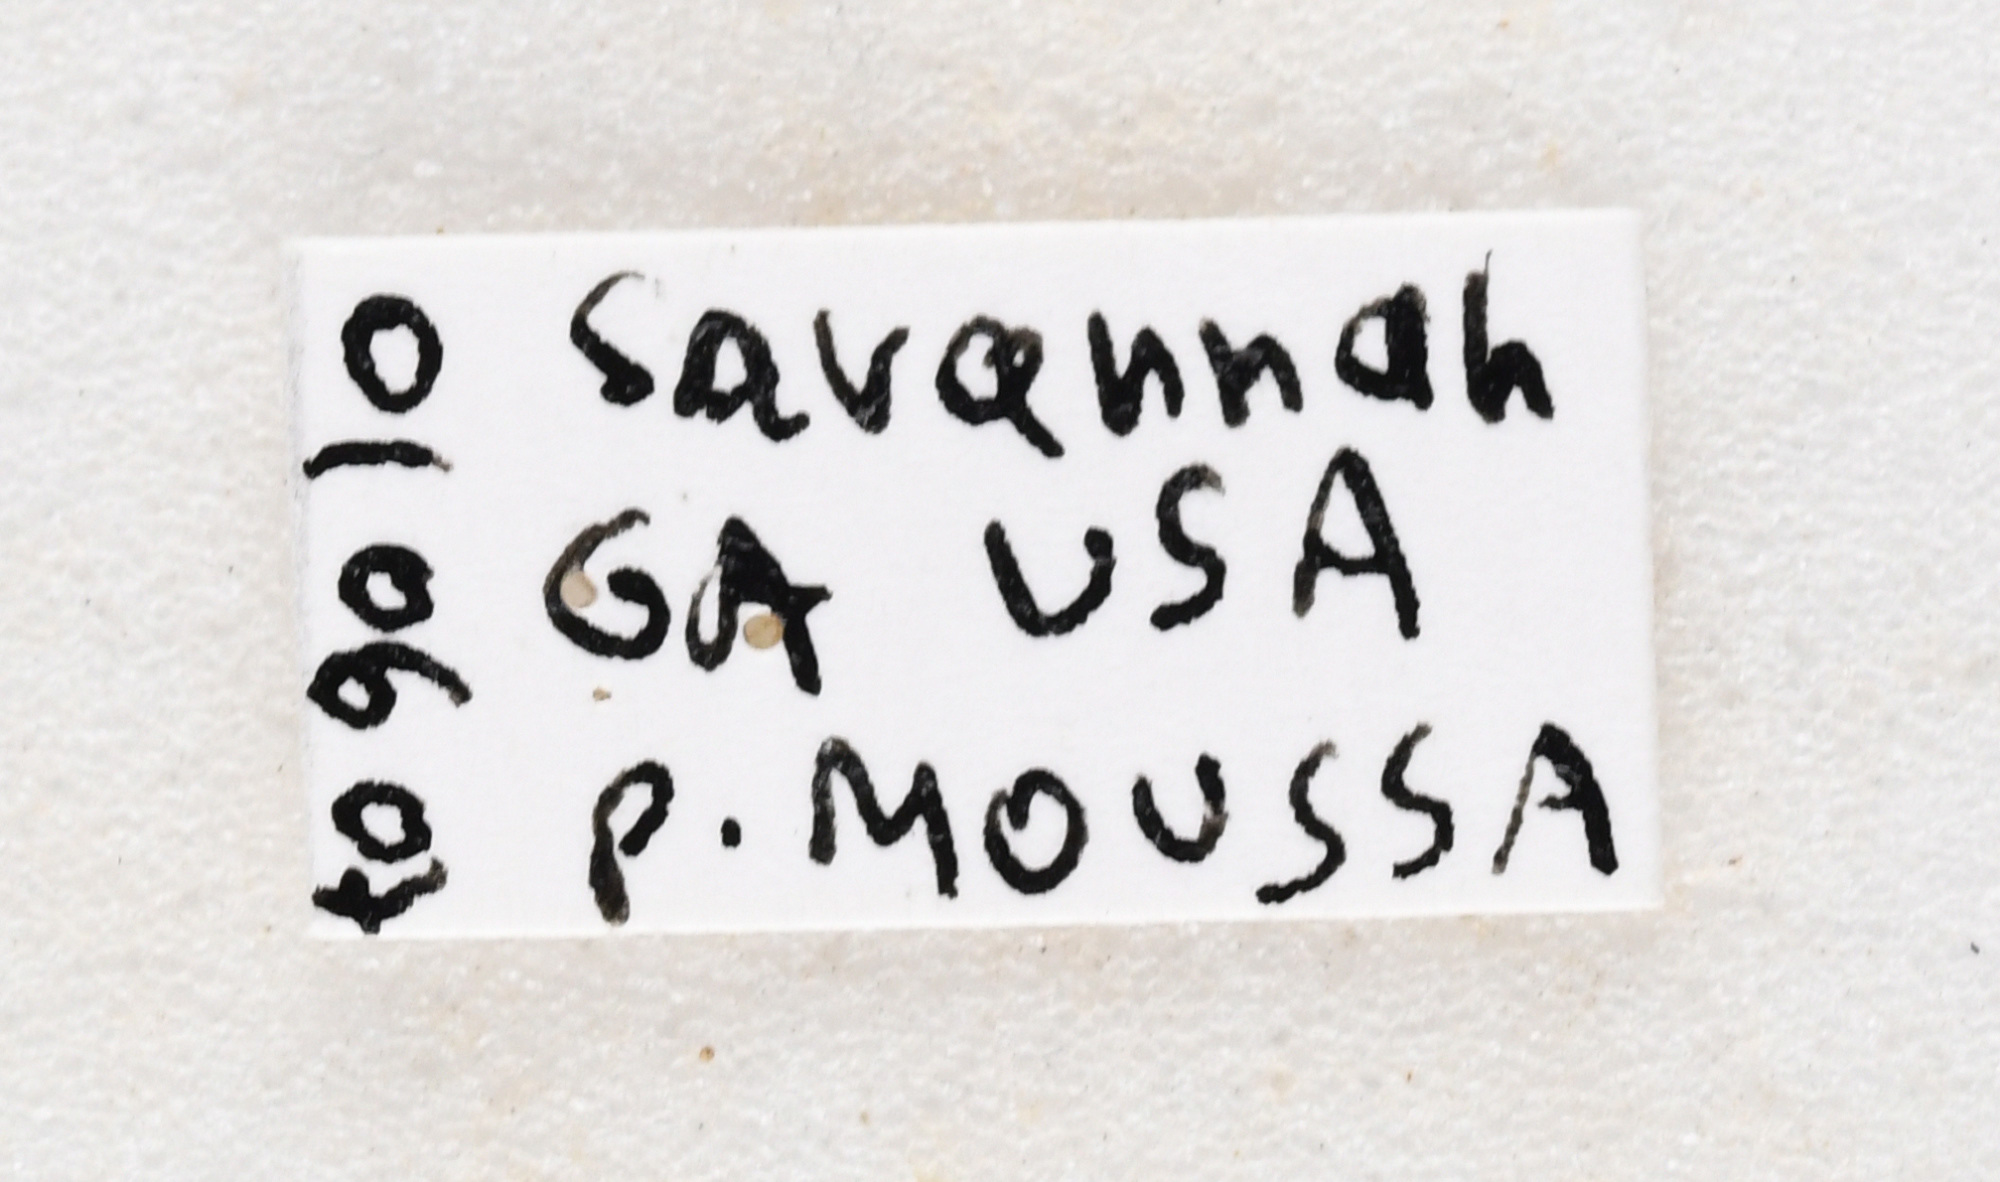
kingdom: Animalia
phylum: Arthropoda
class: Insecta
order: Coleoptera
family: Cerambycidae
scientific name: Cerambycidae
